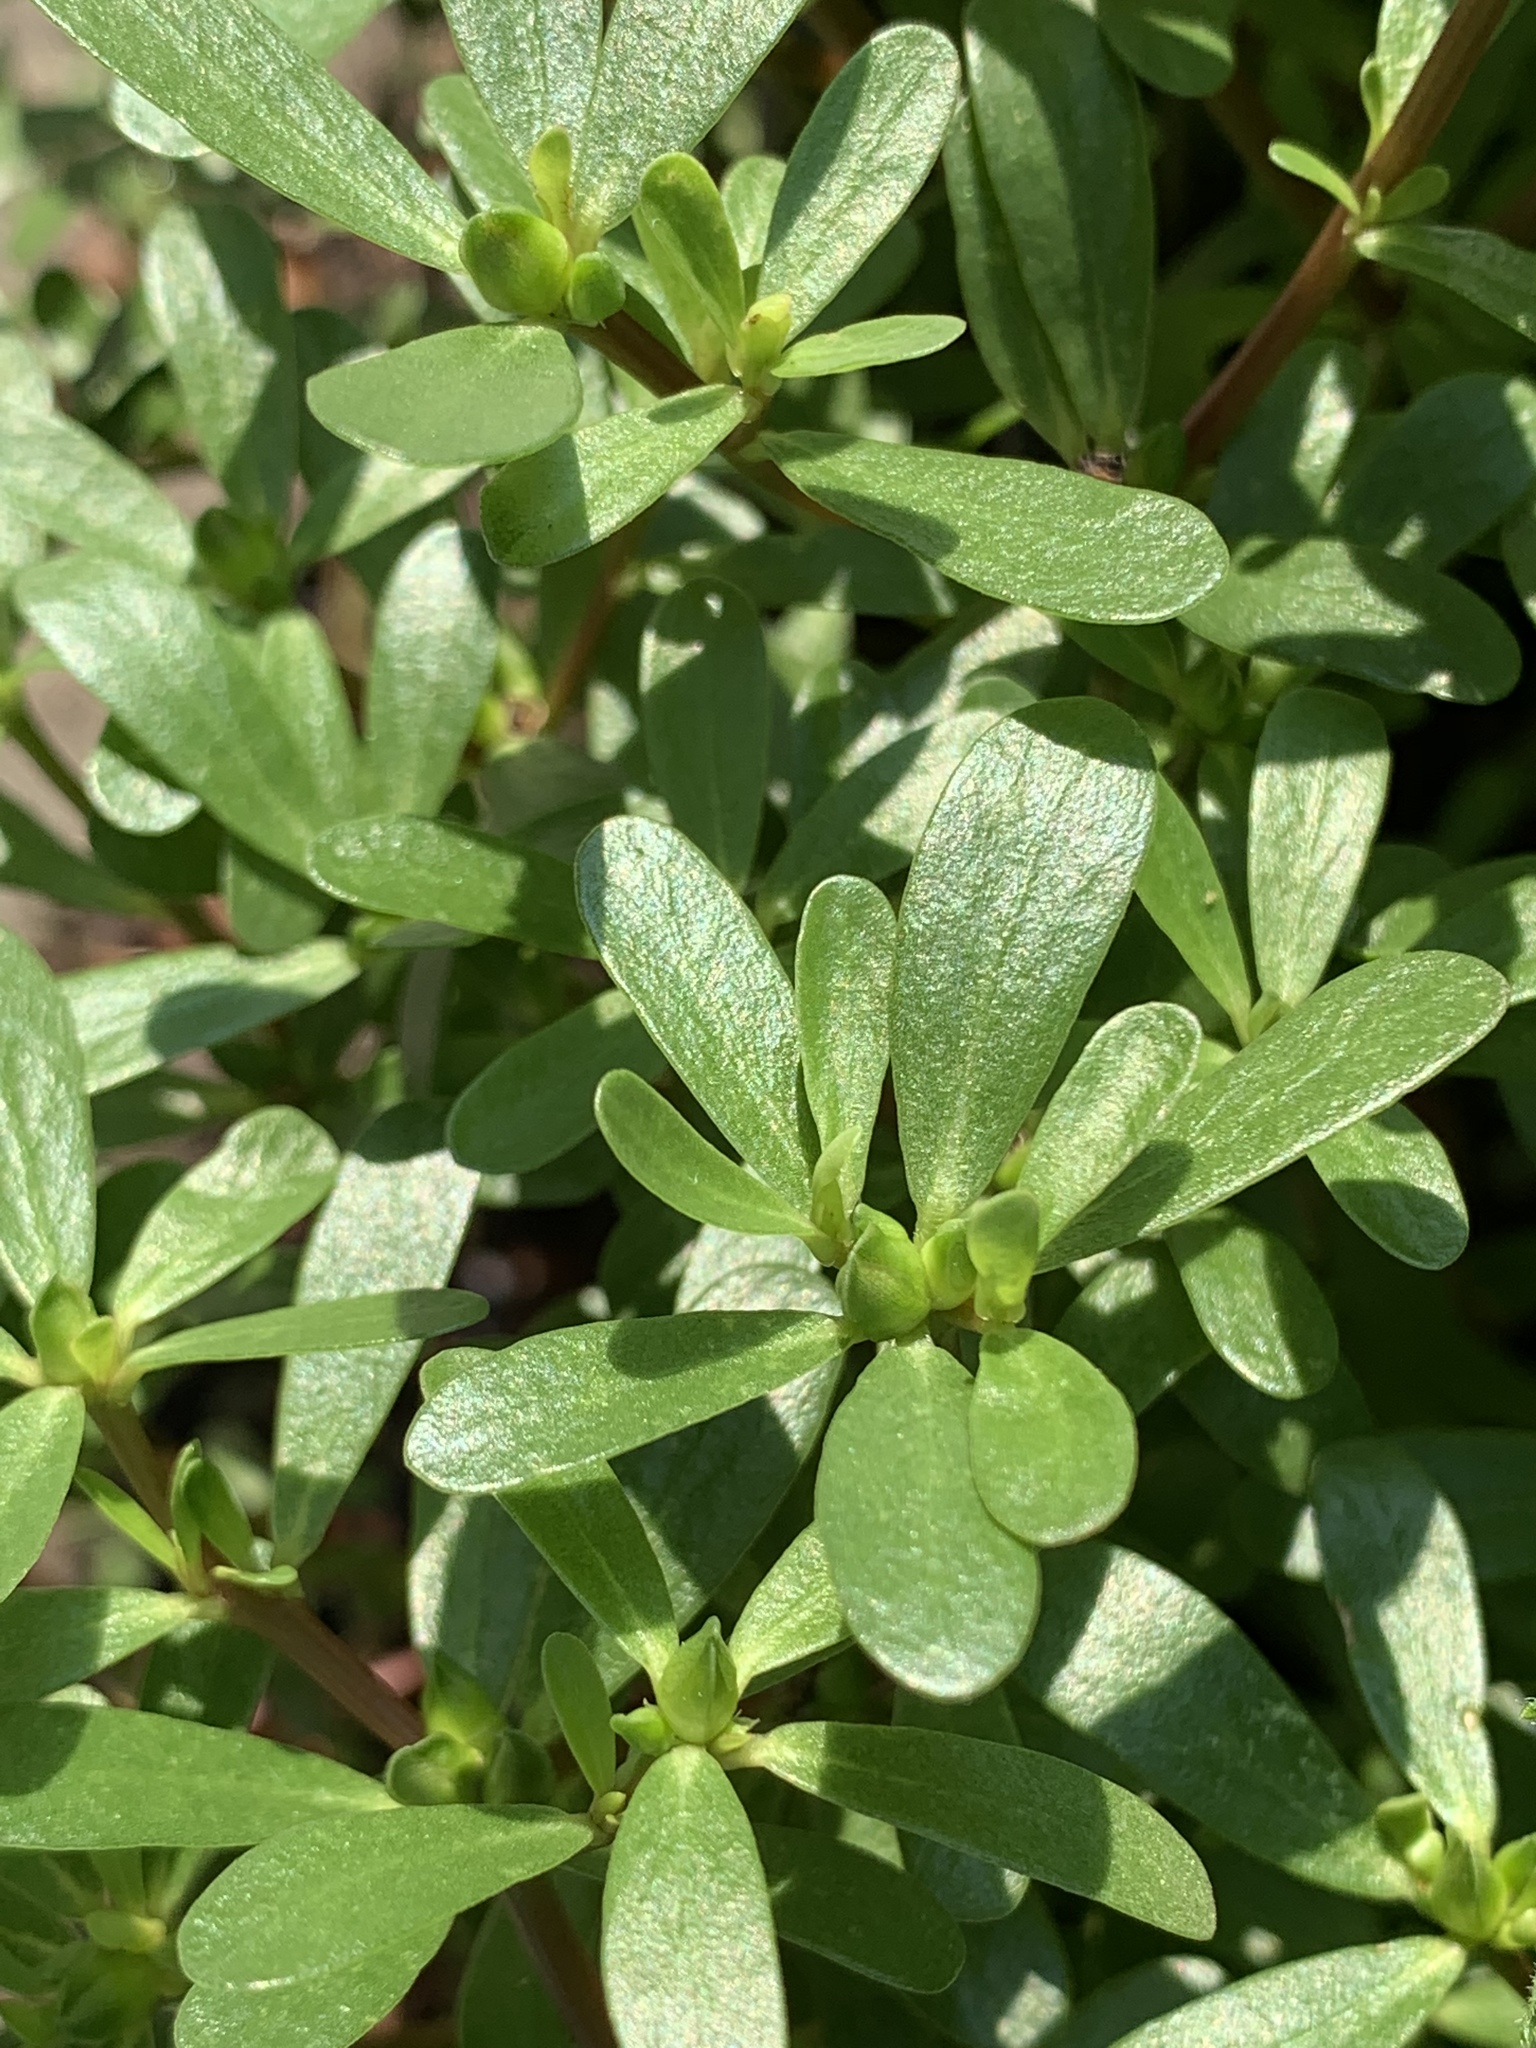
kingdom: Plantae
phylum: Tracheophyta
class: Magnoliopsida
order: Caryophyllales
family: Portulacaceae
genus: Portulaca
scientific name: Portulaca oleracea
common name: Common purslane
